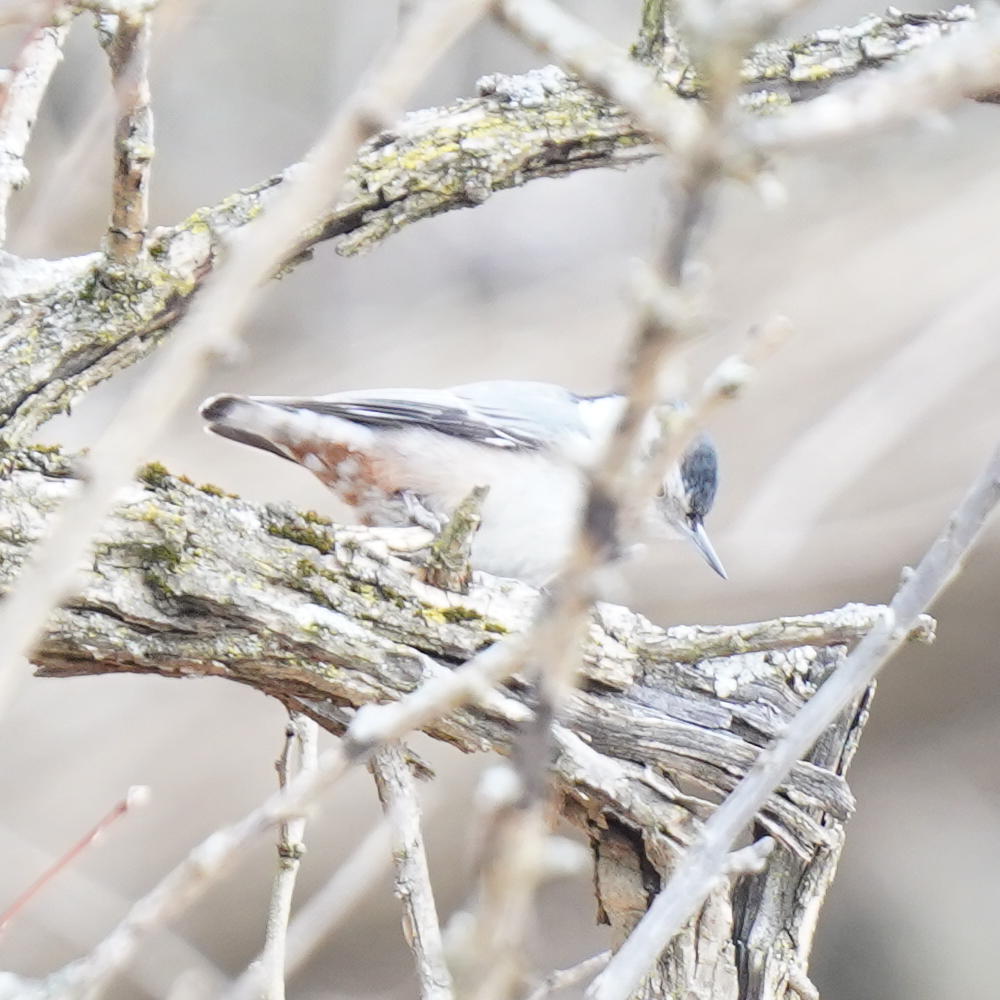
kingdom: Animalia
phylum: Chordata
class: Aves
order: Passeriformes
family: Sittidae
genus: Sitta
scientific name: Sitta carolinensis
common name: White-breasted nuthatch
